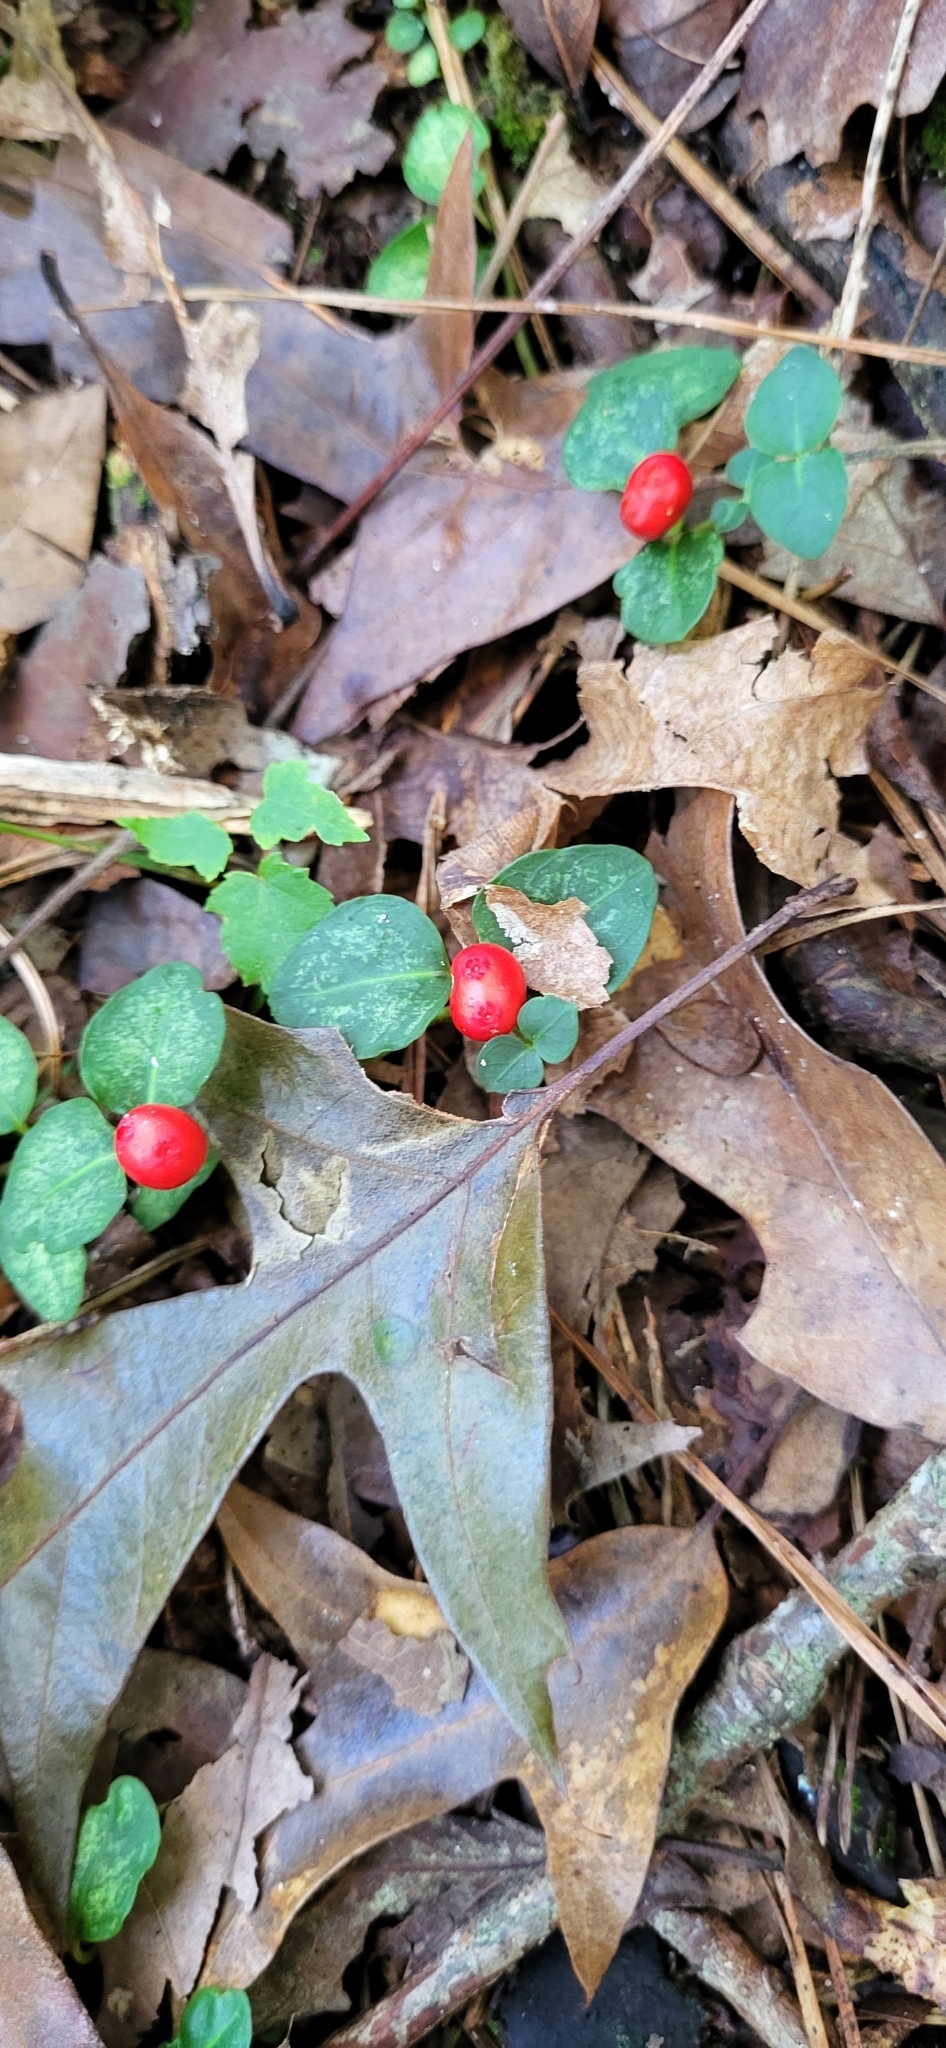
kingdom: Plantae
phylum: Tracheophyta
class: Magnoliopsida
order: Gentianales
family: Rubiaceae
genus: Mitchella
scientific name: Mitchella repens
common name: Partridge-berry
